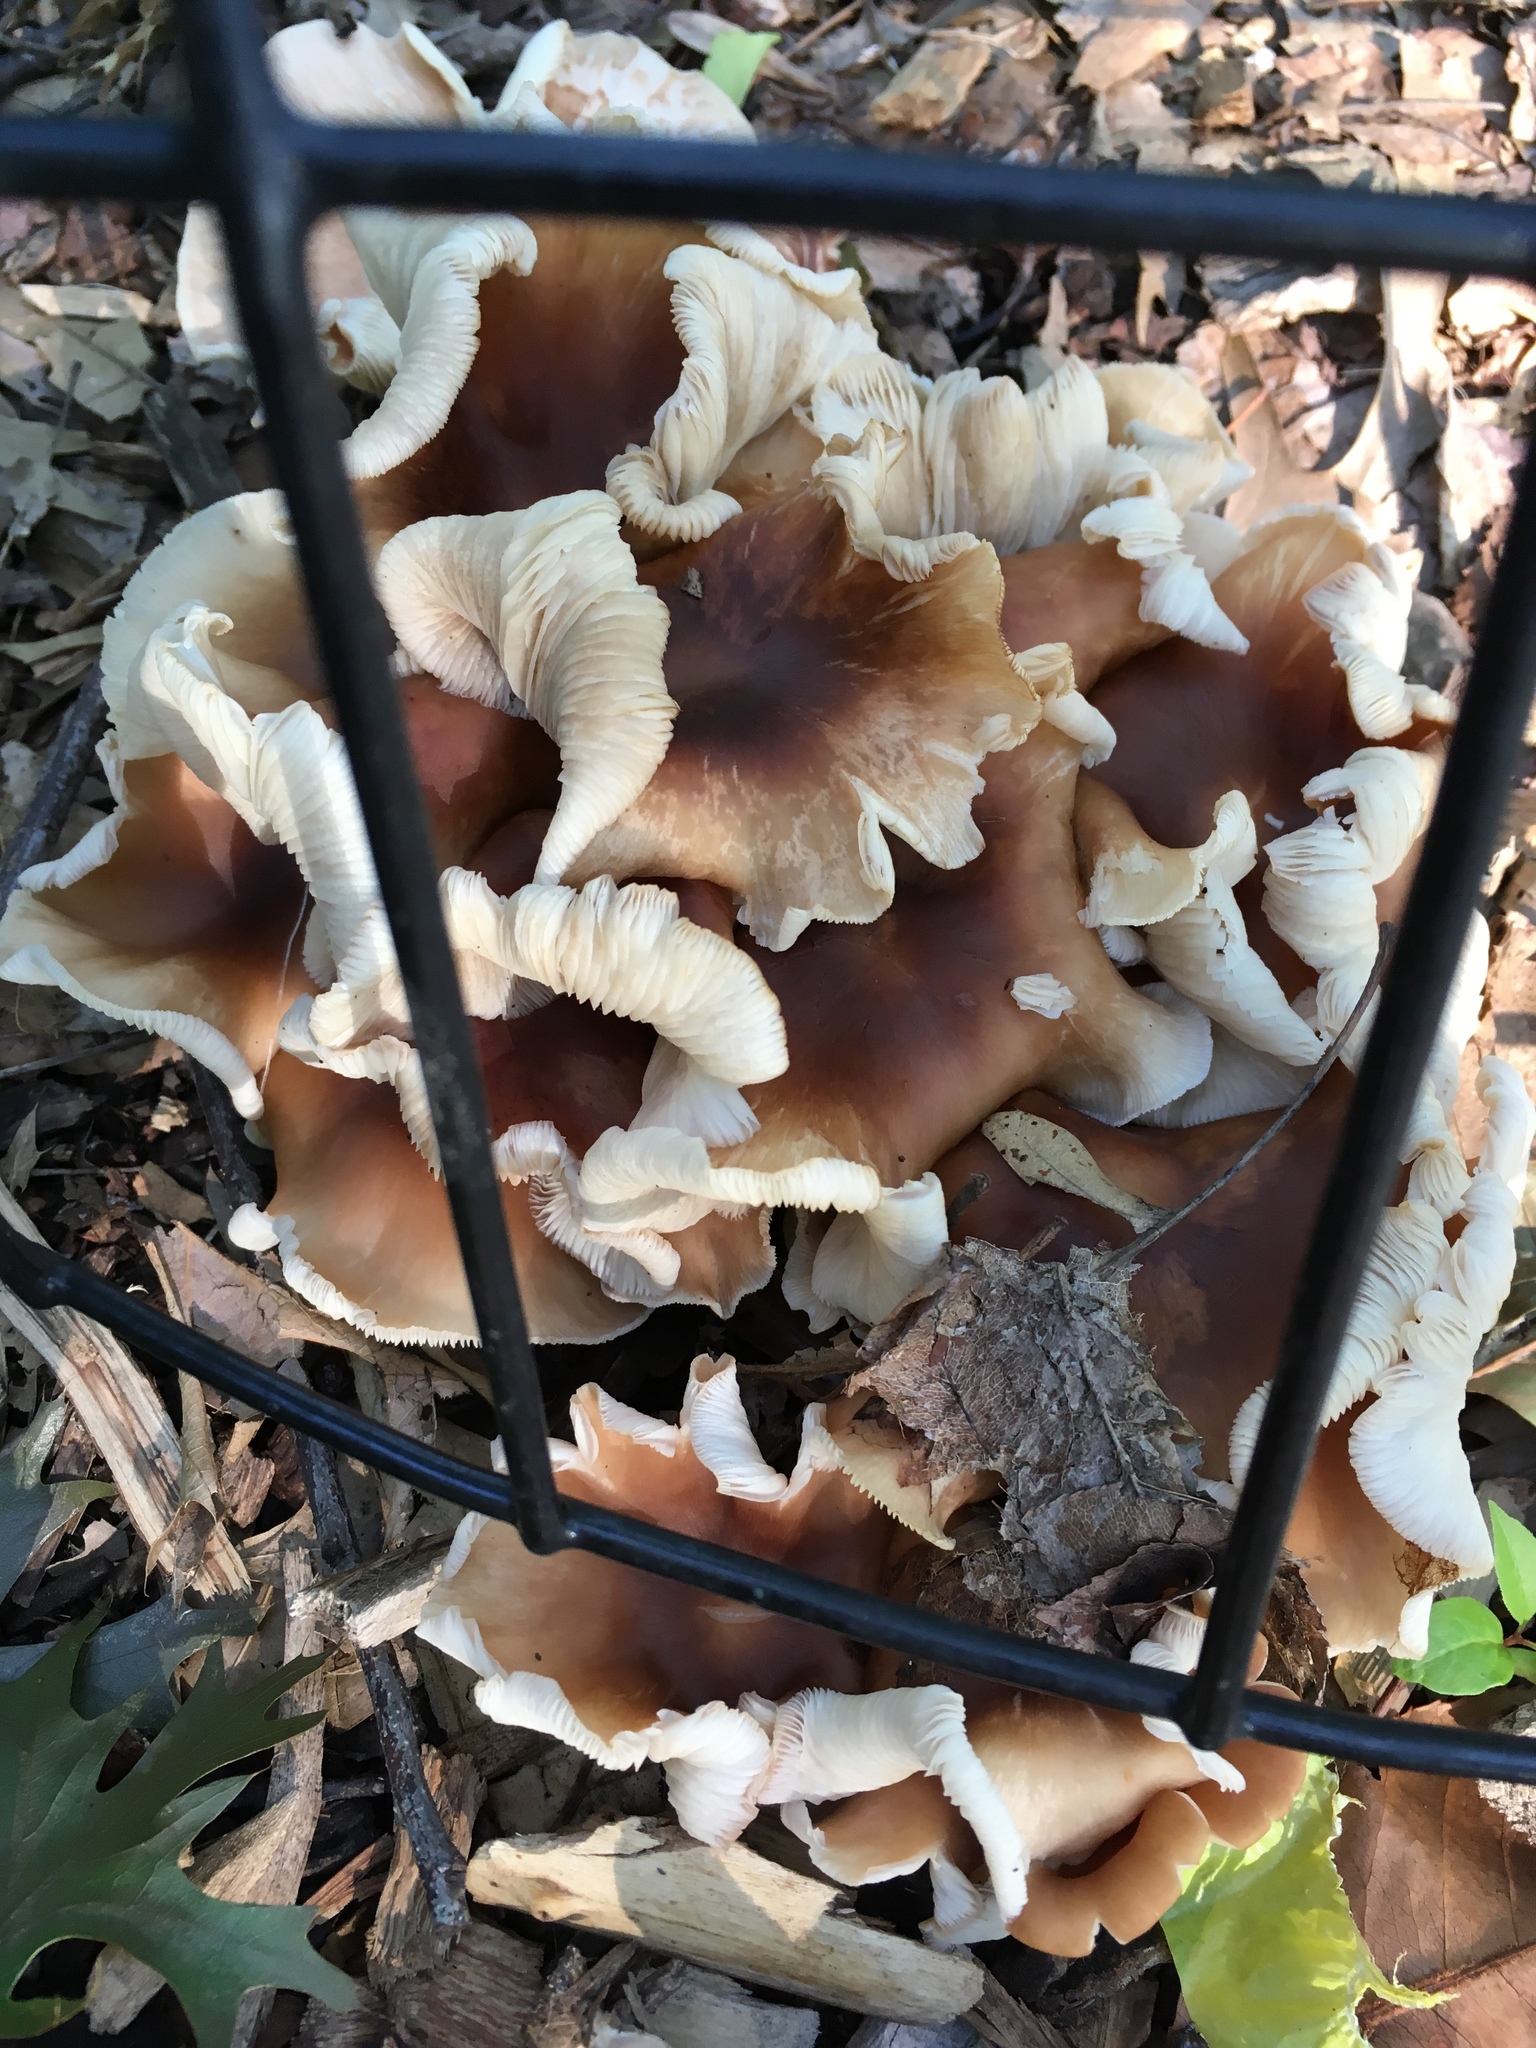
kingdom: Fungi
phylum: Basidiomycota
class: Agaricomycetes
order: Agaricales
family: Omphalotaceae
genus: Collybiopsis
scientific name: Collybiopsis luxurians
